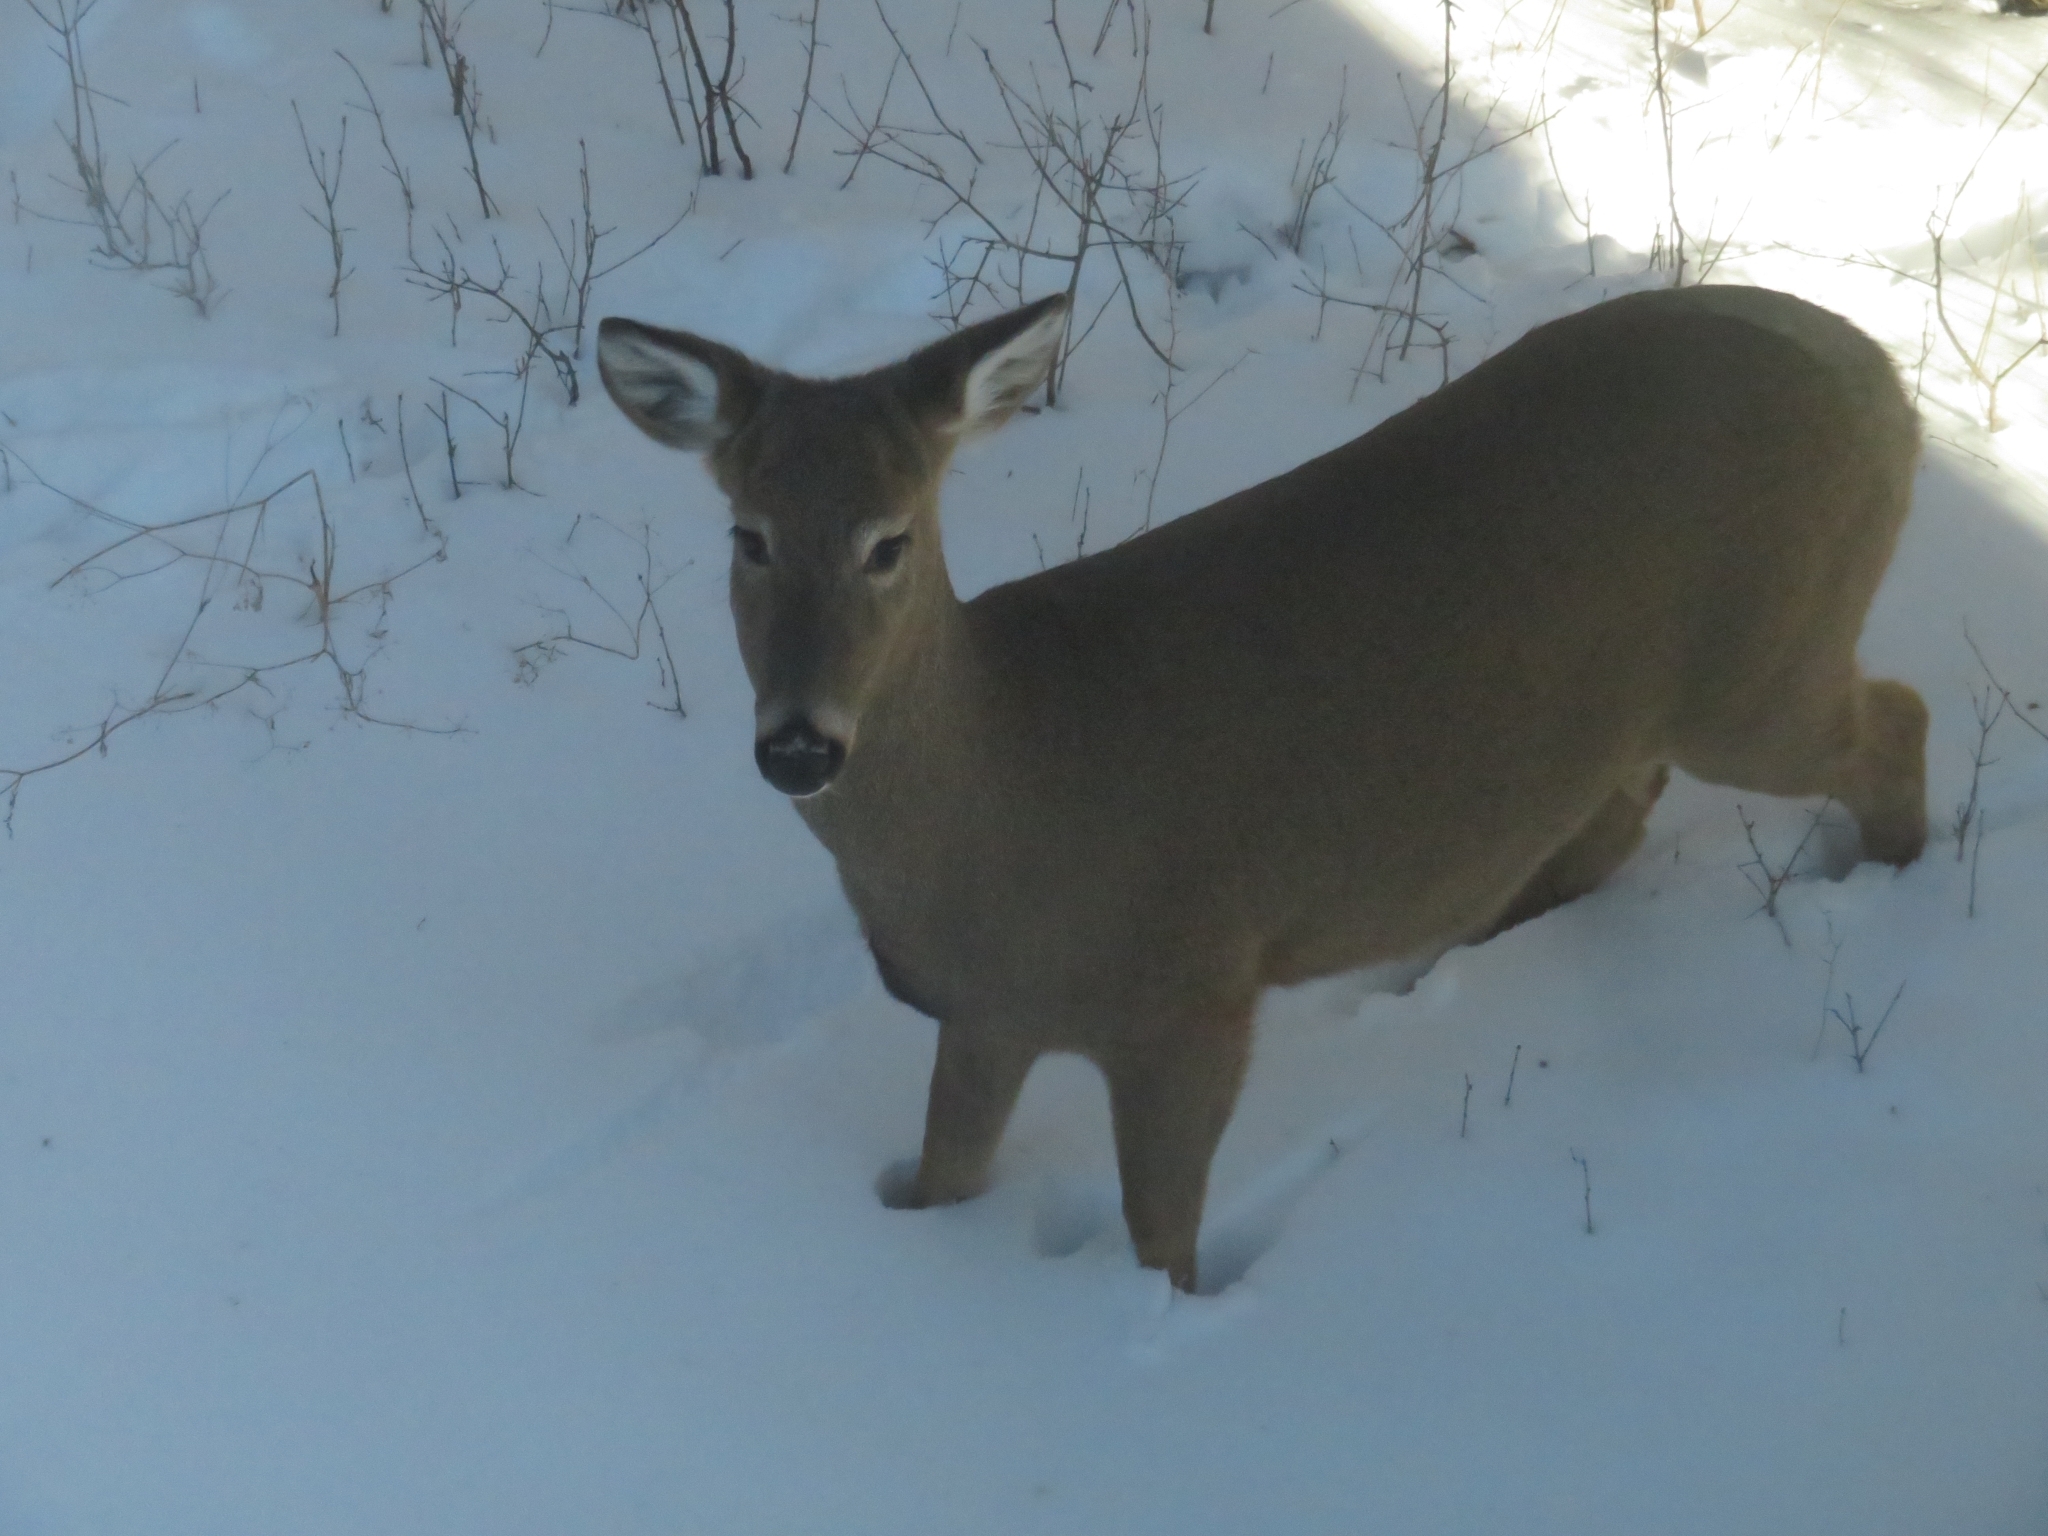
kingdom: Animalia
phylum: Chordata
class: Mammalia
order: Artiodactyla
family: Cervidae
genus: Odocoileus
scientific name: Odocoileus virginianus
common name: White-tailed deer
